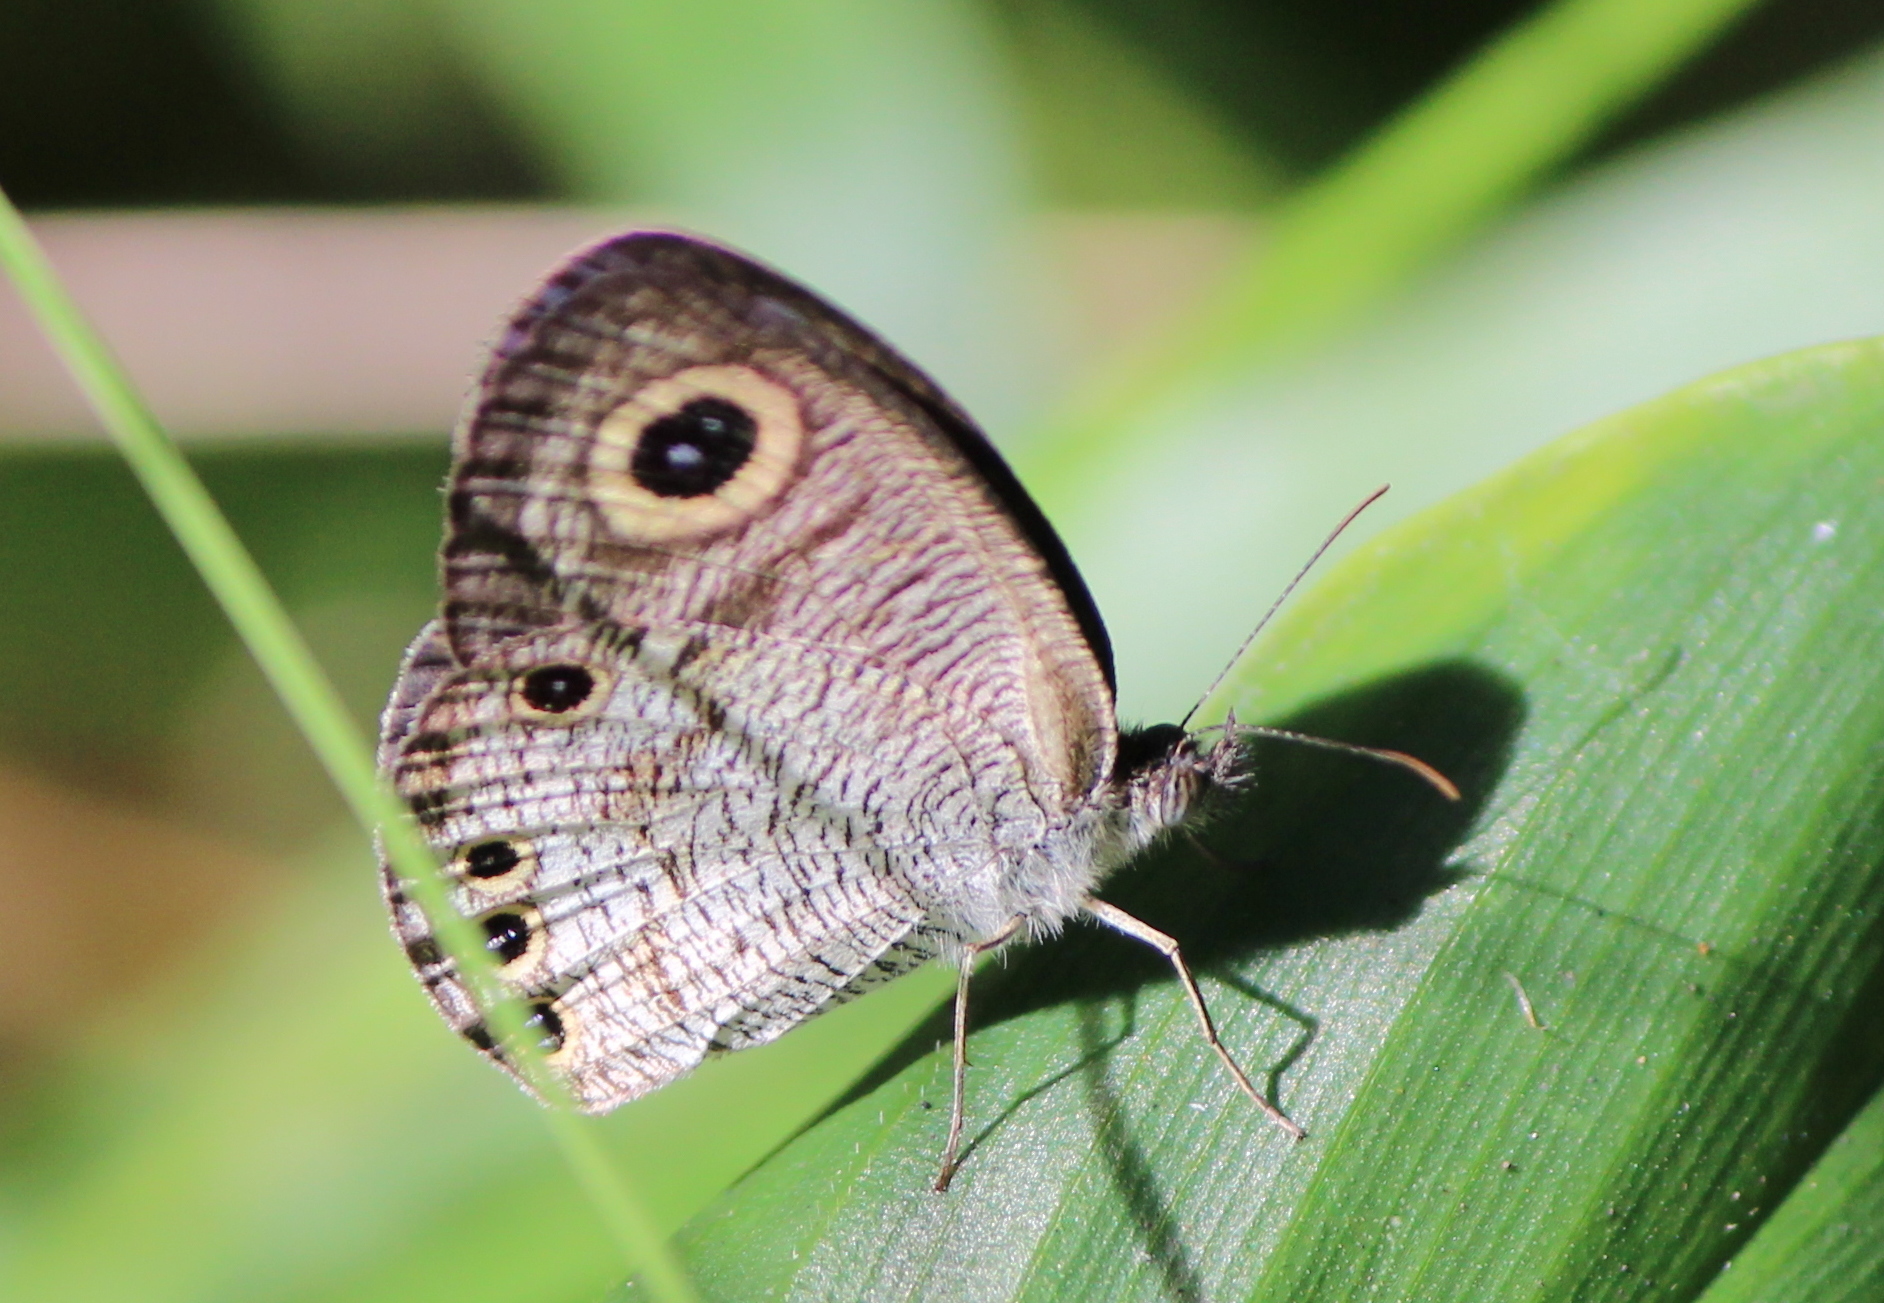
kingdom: Animalia
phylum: Arthropoda
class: Insecta
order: Lepidoptera
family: Nymphalidae
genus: Ypthima
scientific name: Ypthima huebneri
